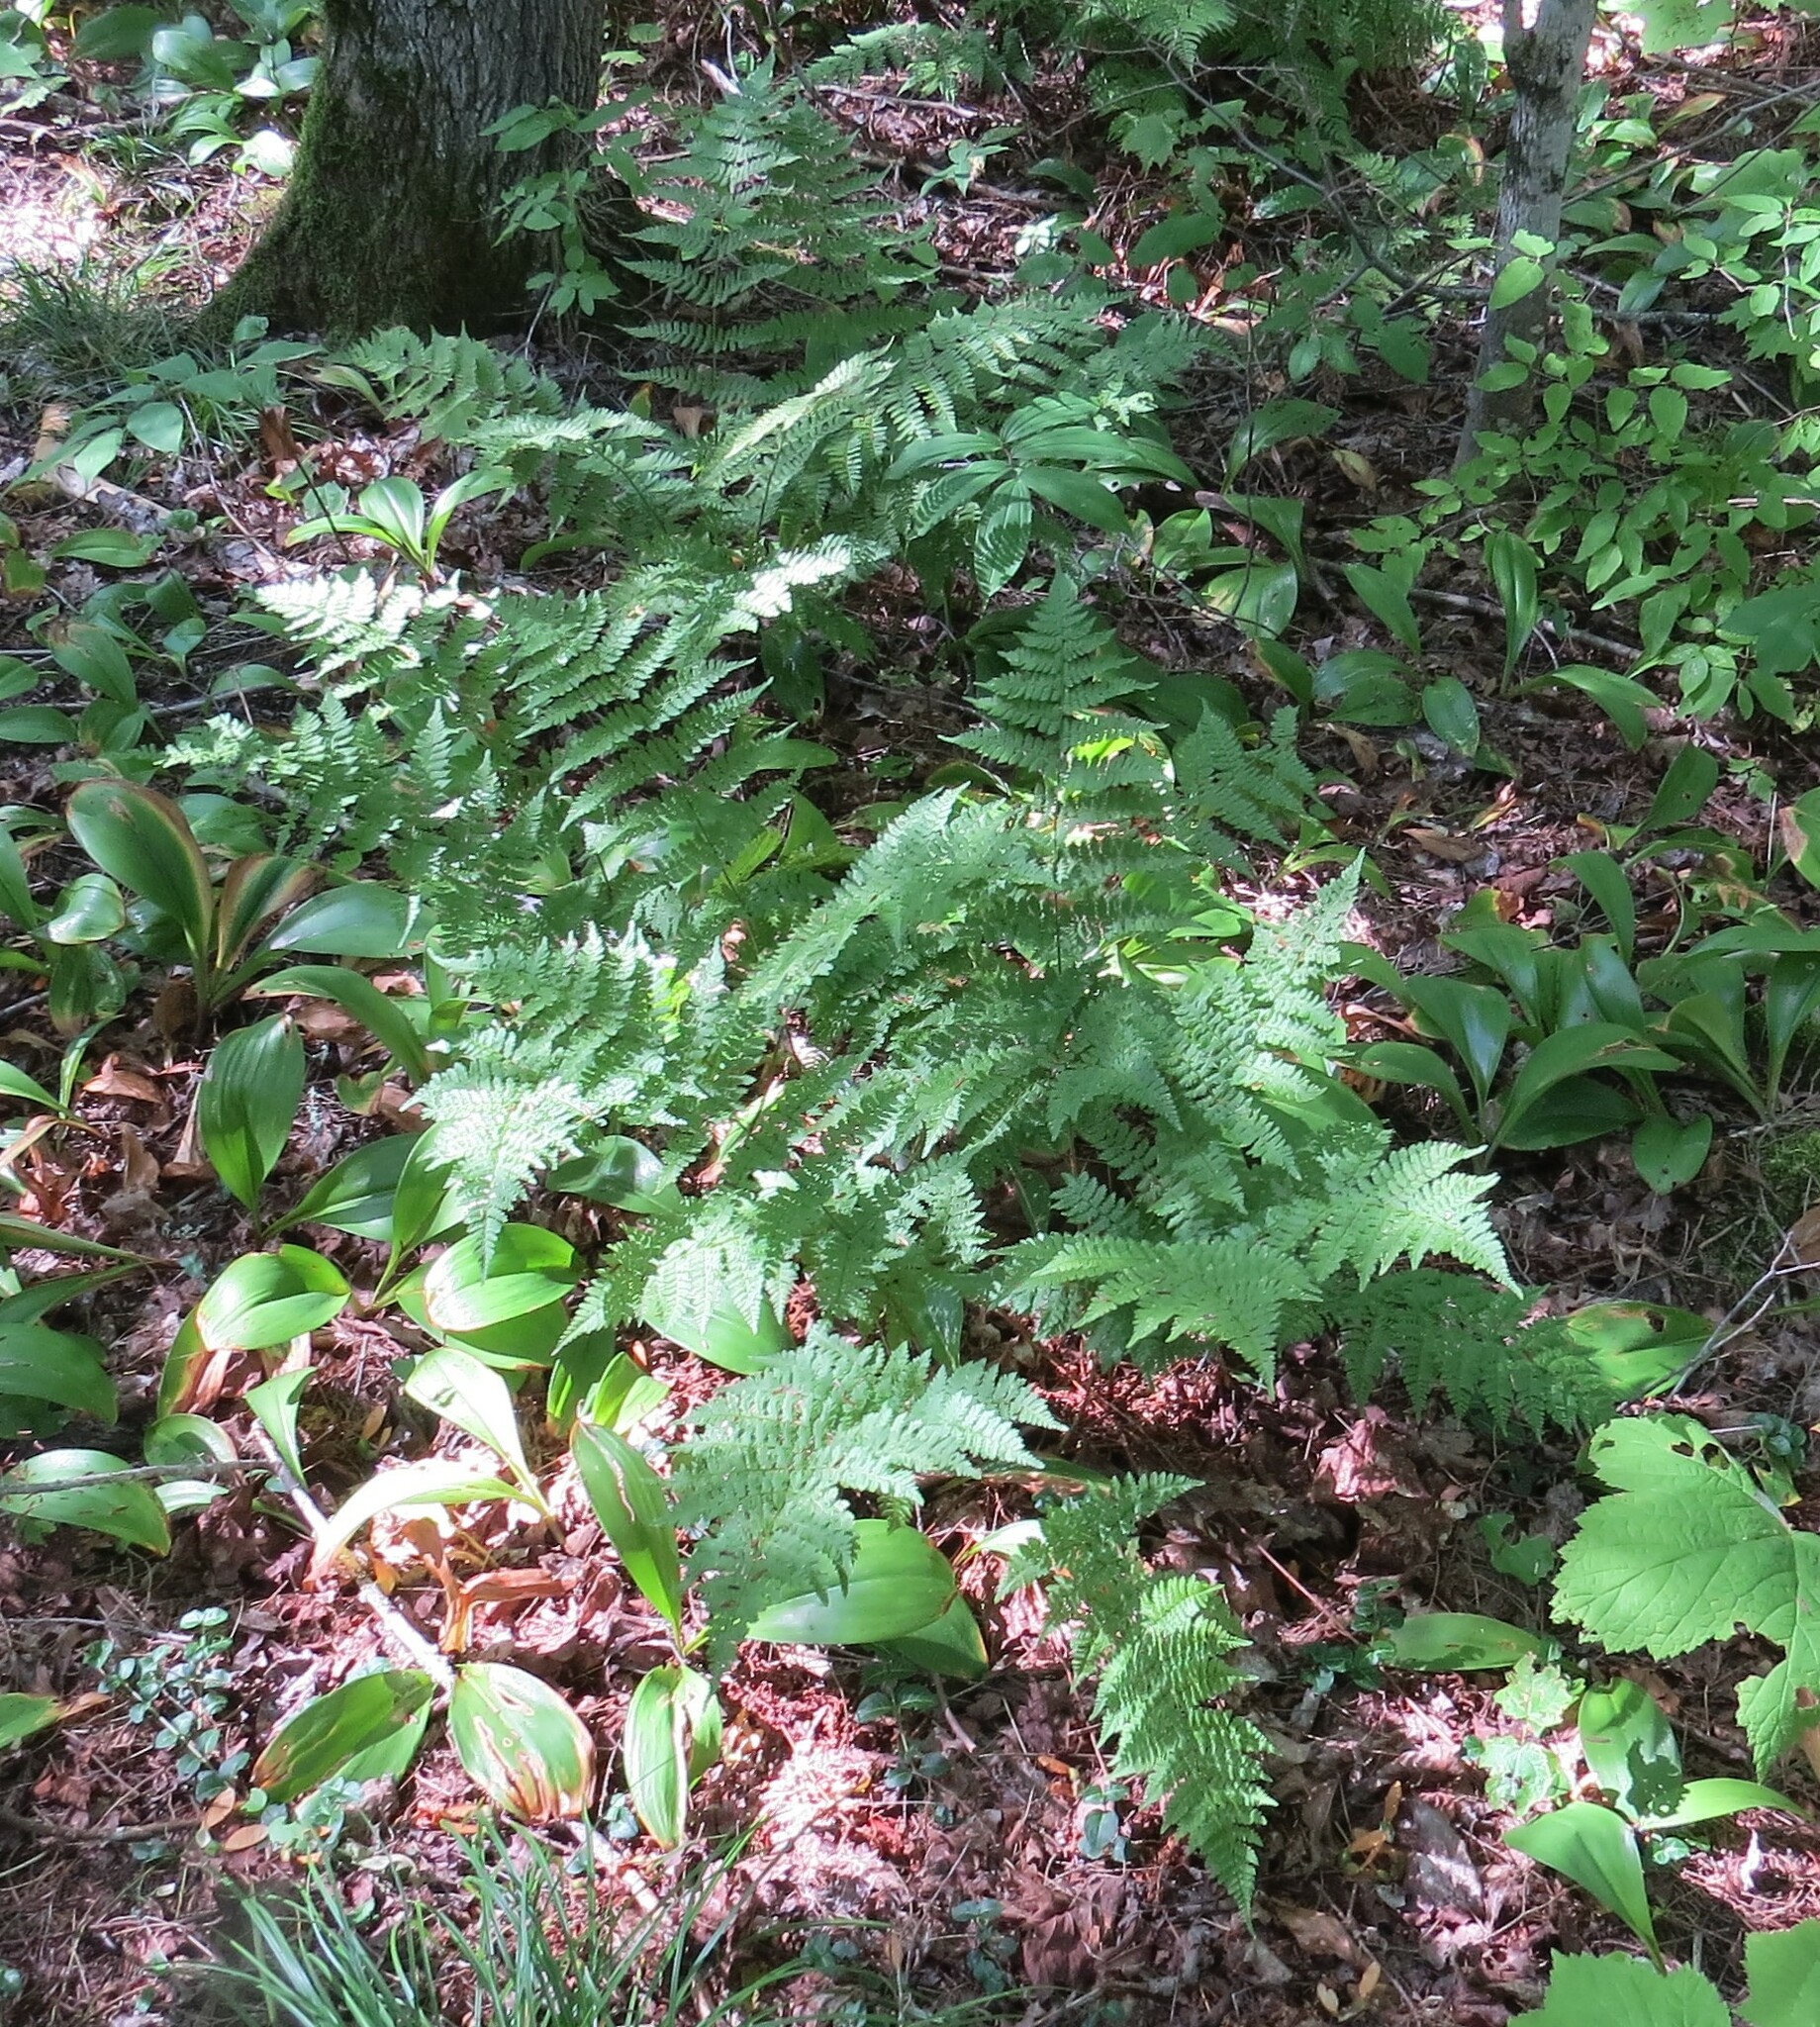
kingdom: Plantae
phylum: Tracheophyta
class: Polypodiopsida
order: Polypodiales
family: Dryopteridaceae
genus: Dryopteris
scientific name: Dryopteris intermedia
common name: Evergreen wood fern
